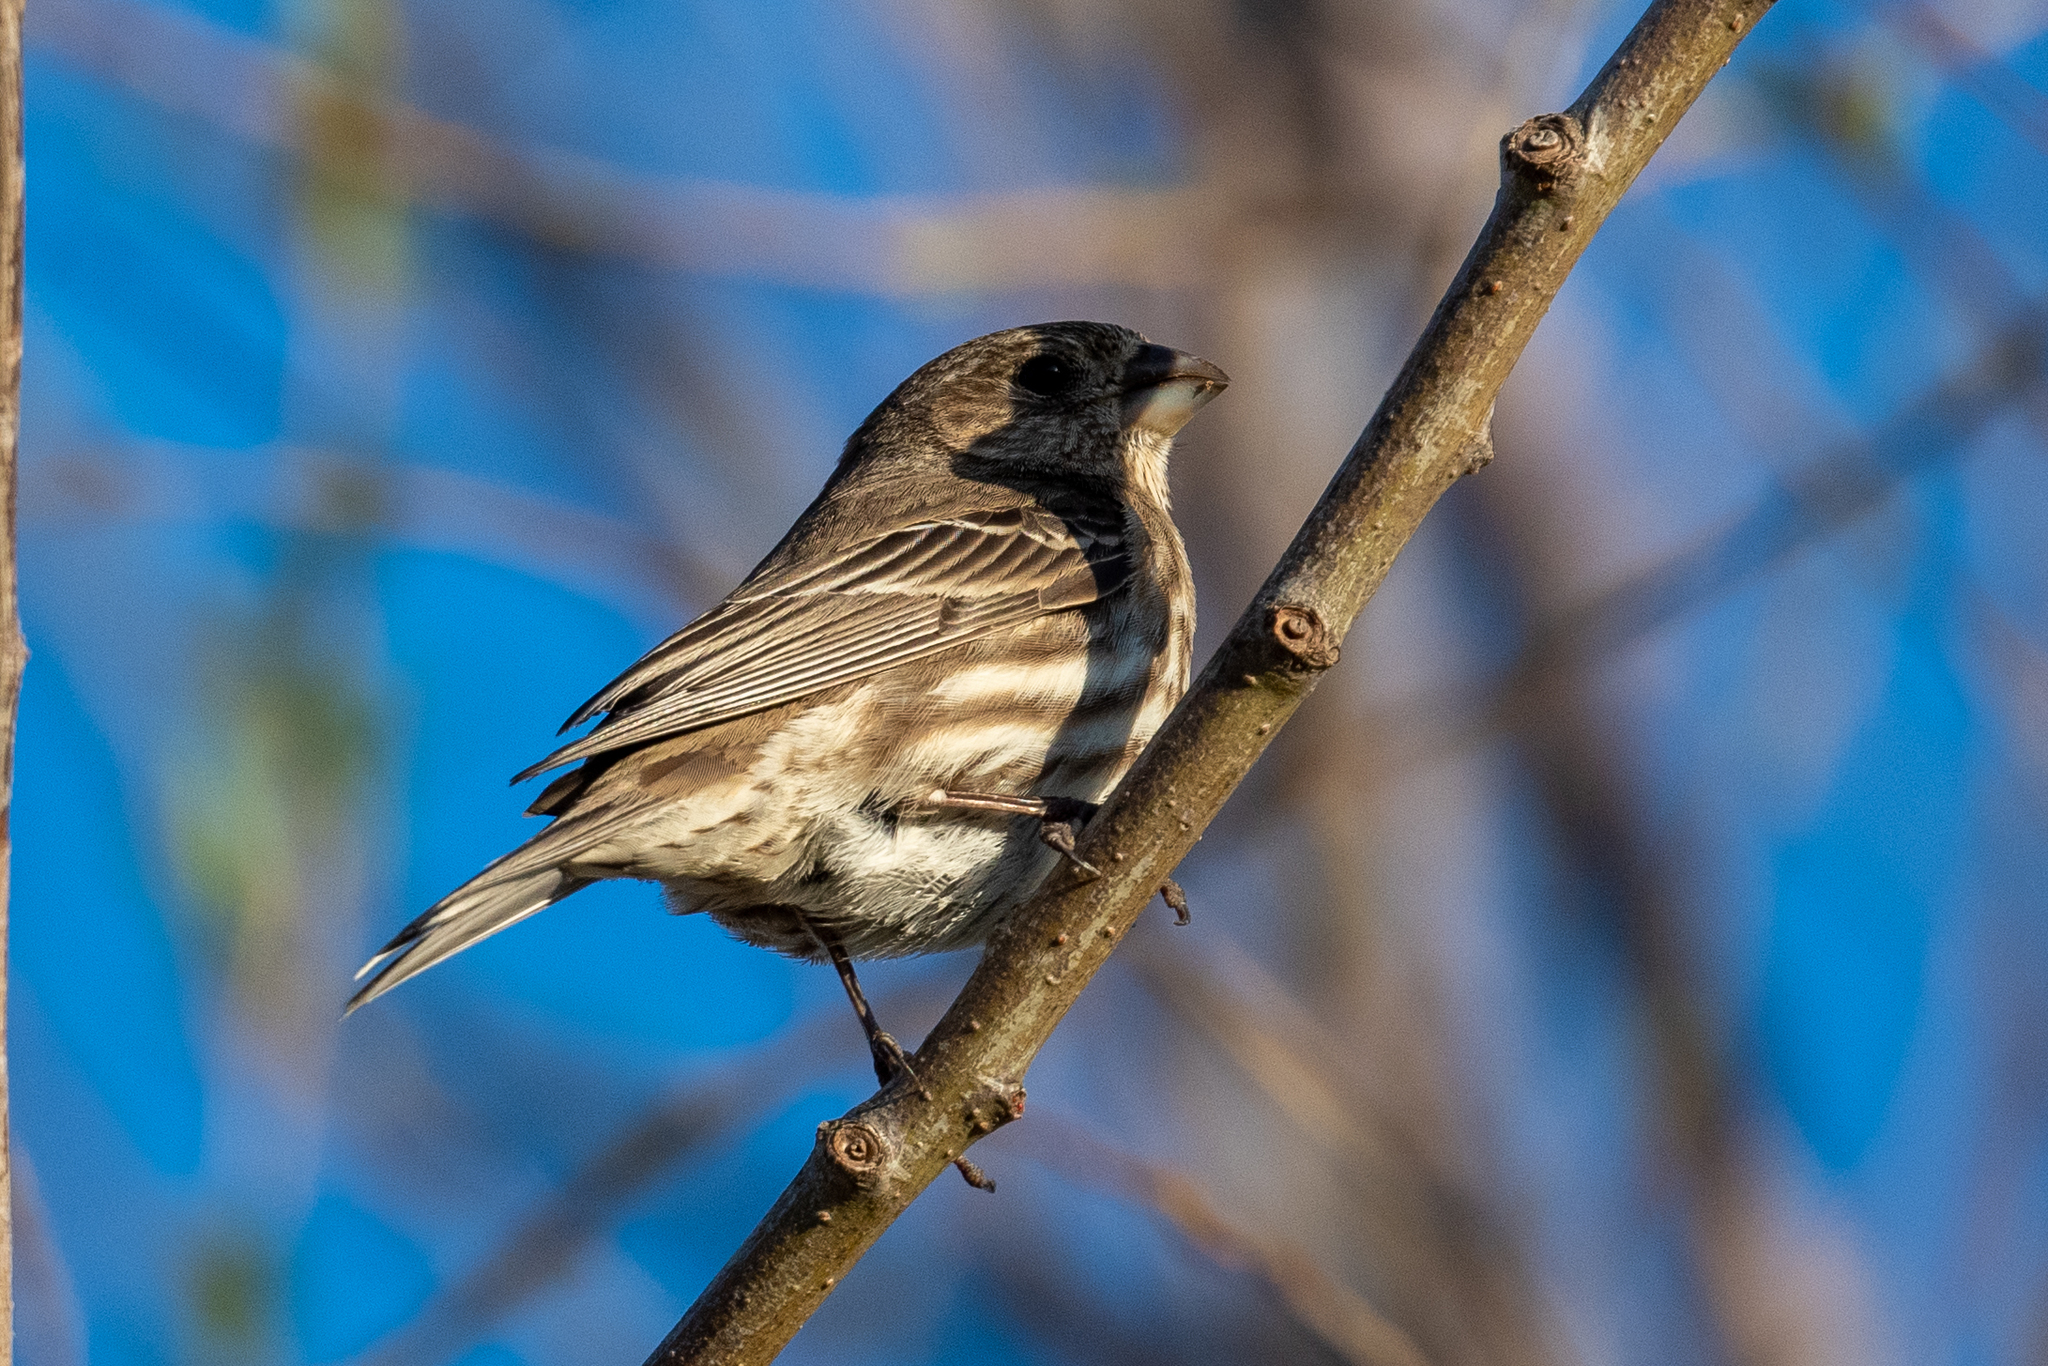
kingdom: Animalia
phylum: Chordata
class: Aves
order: Passeriformes
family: Fringillidae
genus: Haemorhous
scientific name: Haemorhous mexicanus
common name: House finch
